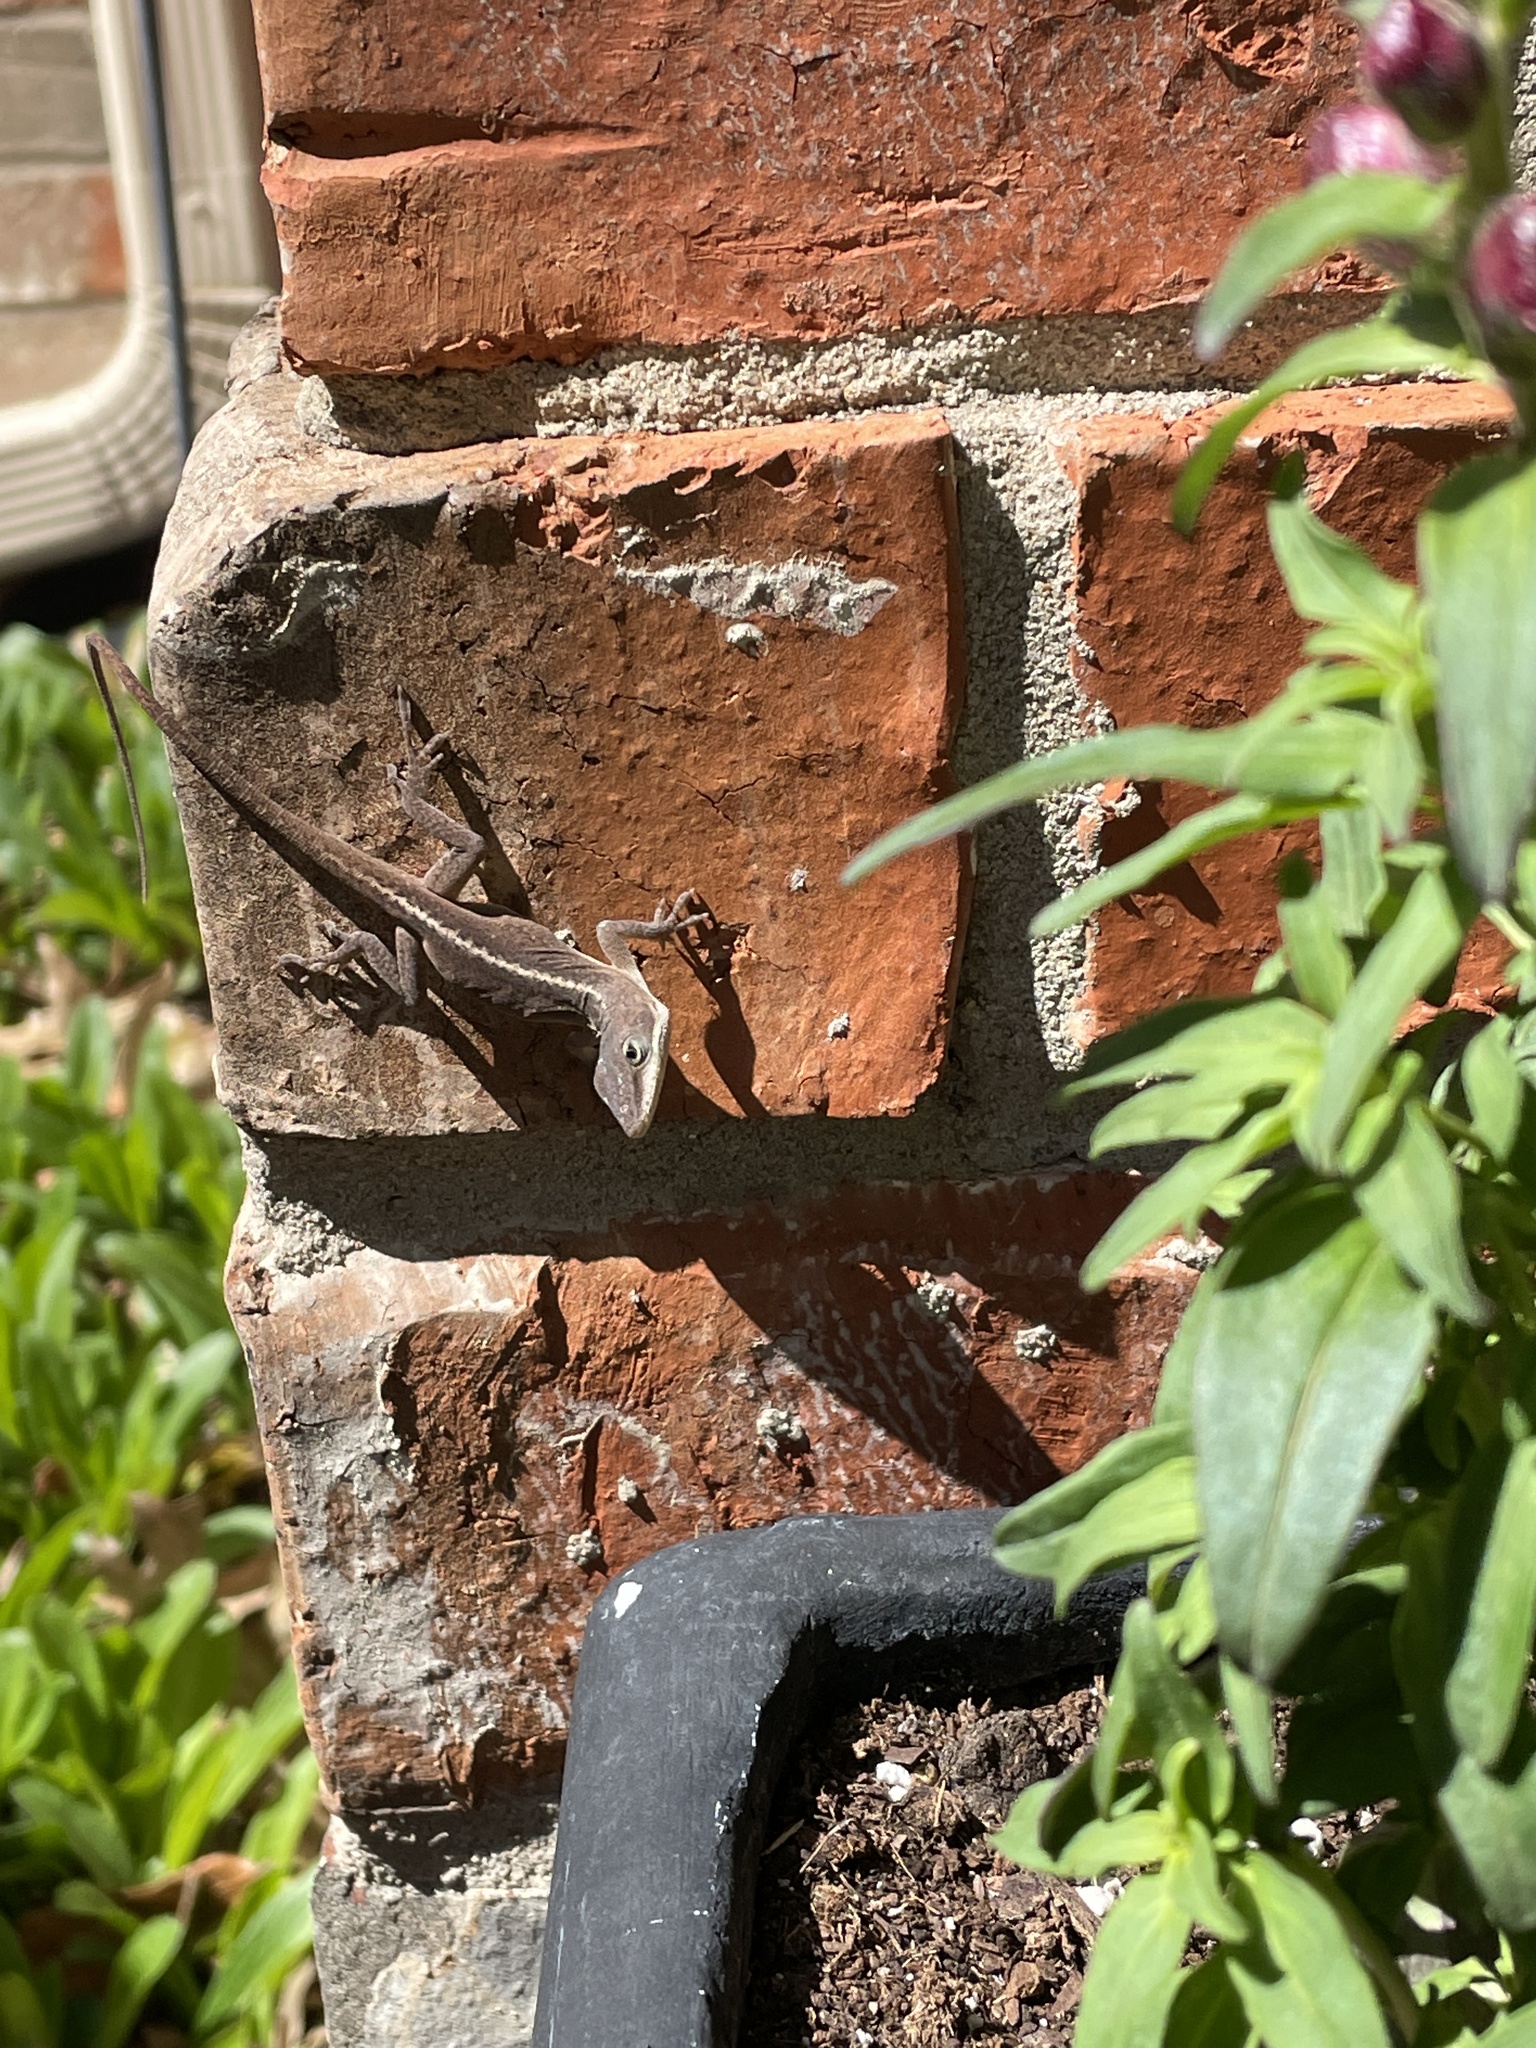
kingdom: Animalia
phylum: Chordata
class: Squamata
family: Dactyloidae
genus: Anolis
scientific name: Anolis carolinensis
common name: Green anole
